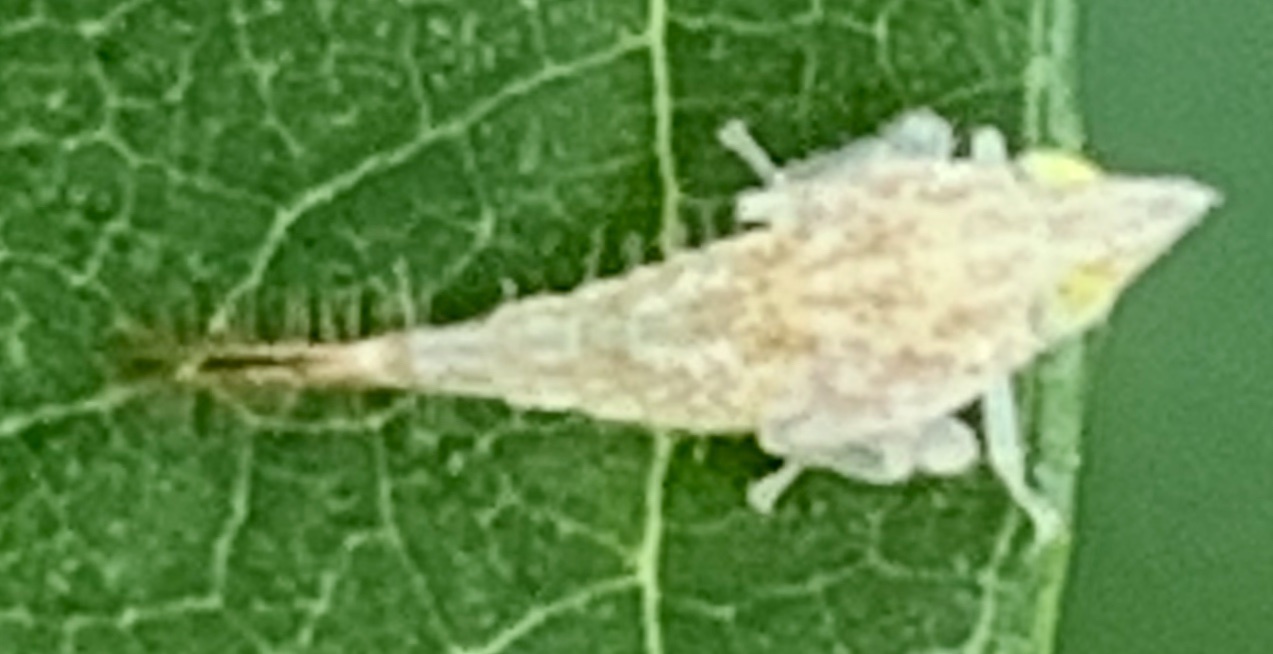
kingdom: Animalia
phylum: Arthropoda
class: Insecta
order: Hemiptera
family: Cicadellidae
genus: Japananus
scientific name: Japananus hyalinus
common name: The japanese maple leafhopper
